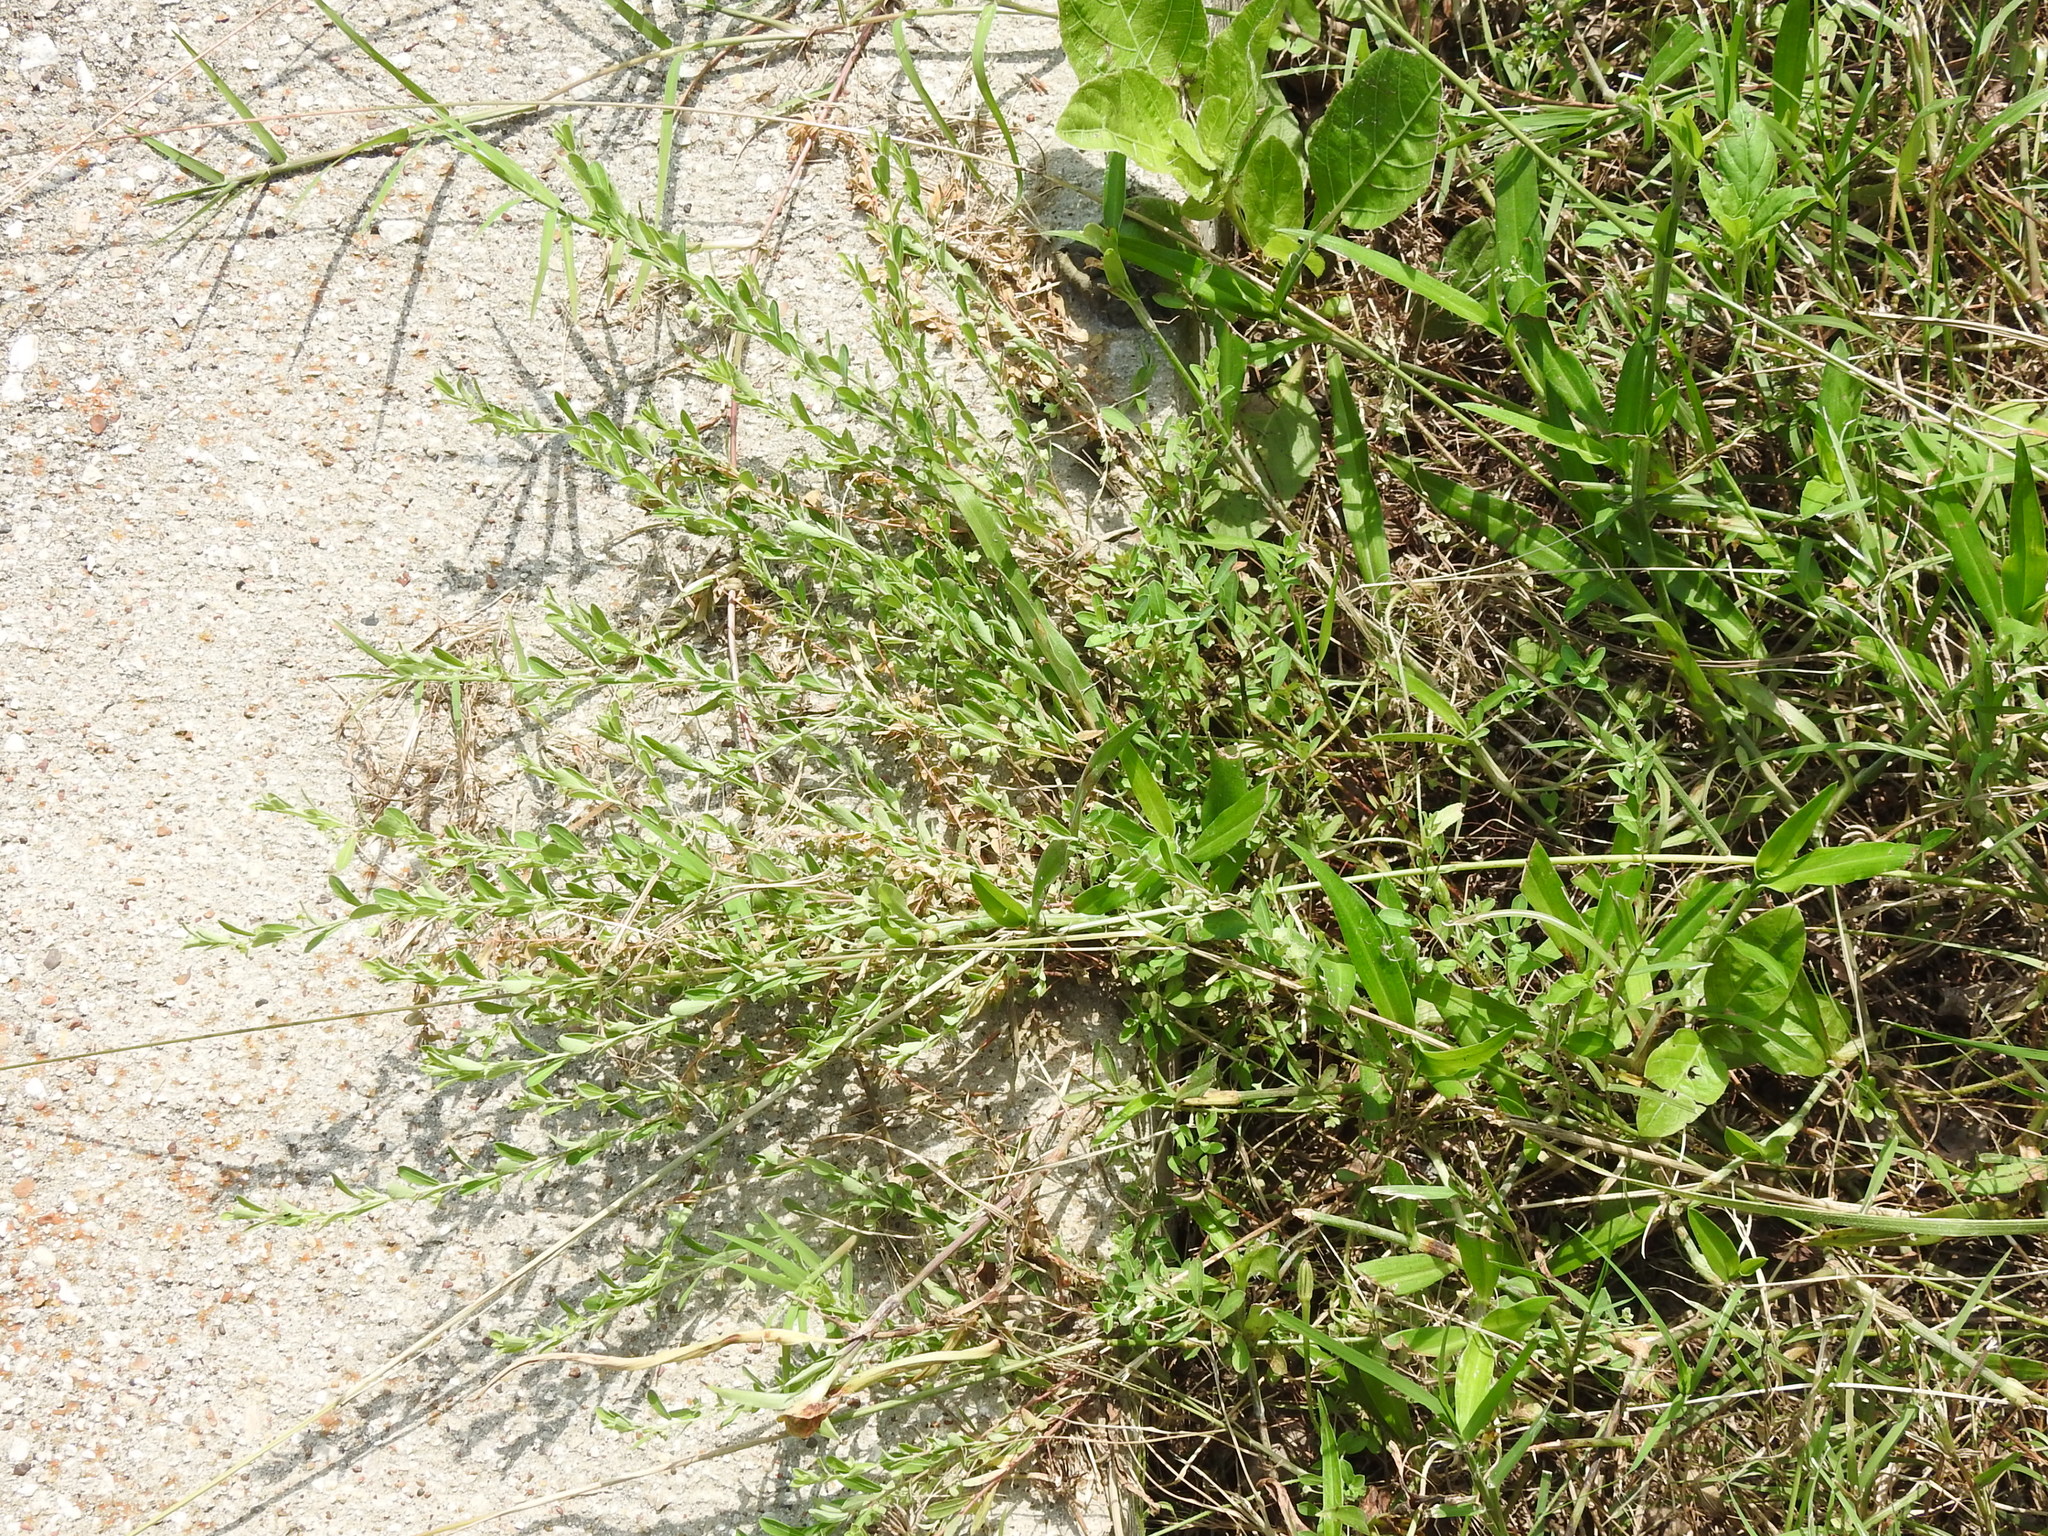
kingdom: Plantae
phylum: Tracheophyta
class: Magnoliopsida
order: Malpighiales
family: Phyllanthaceae
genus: Phyllanthus
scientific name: Phyllanthus polygonoides
